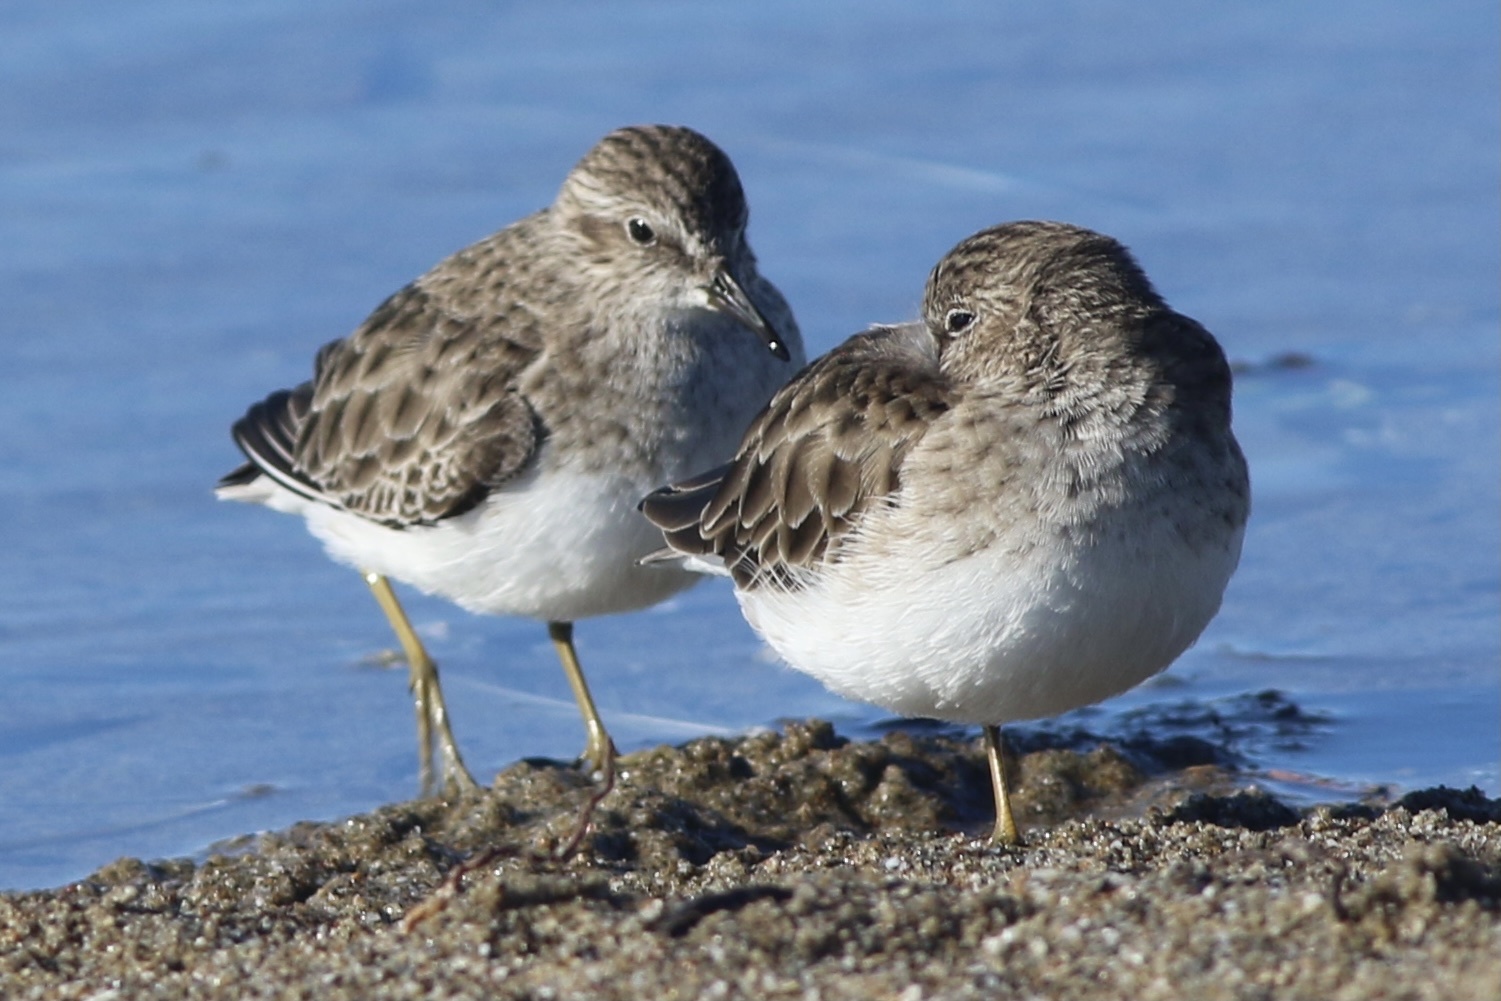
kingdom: Animalia
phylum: Chordata
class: Aves
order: Charadriiformes
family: Scolopacidae
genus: Calidris
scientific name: Calidris minutilla
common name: Least sandpiper
